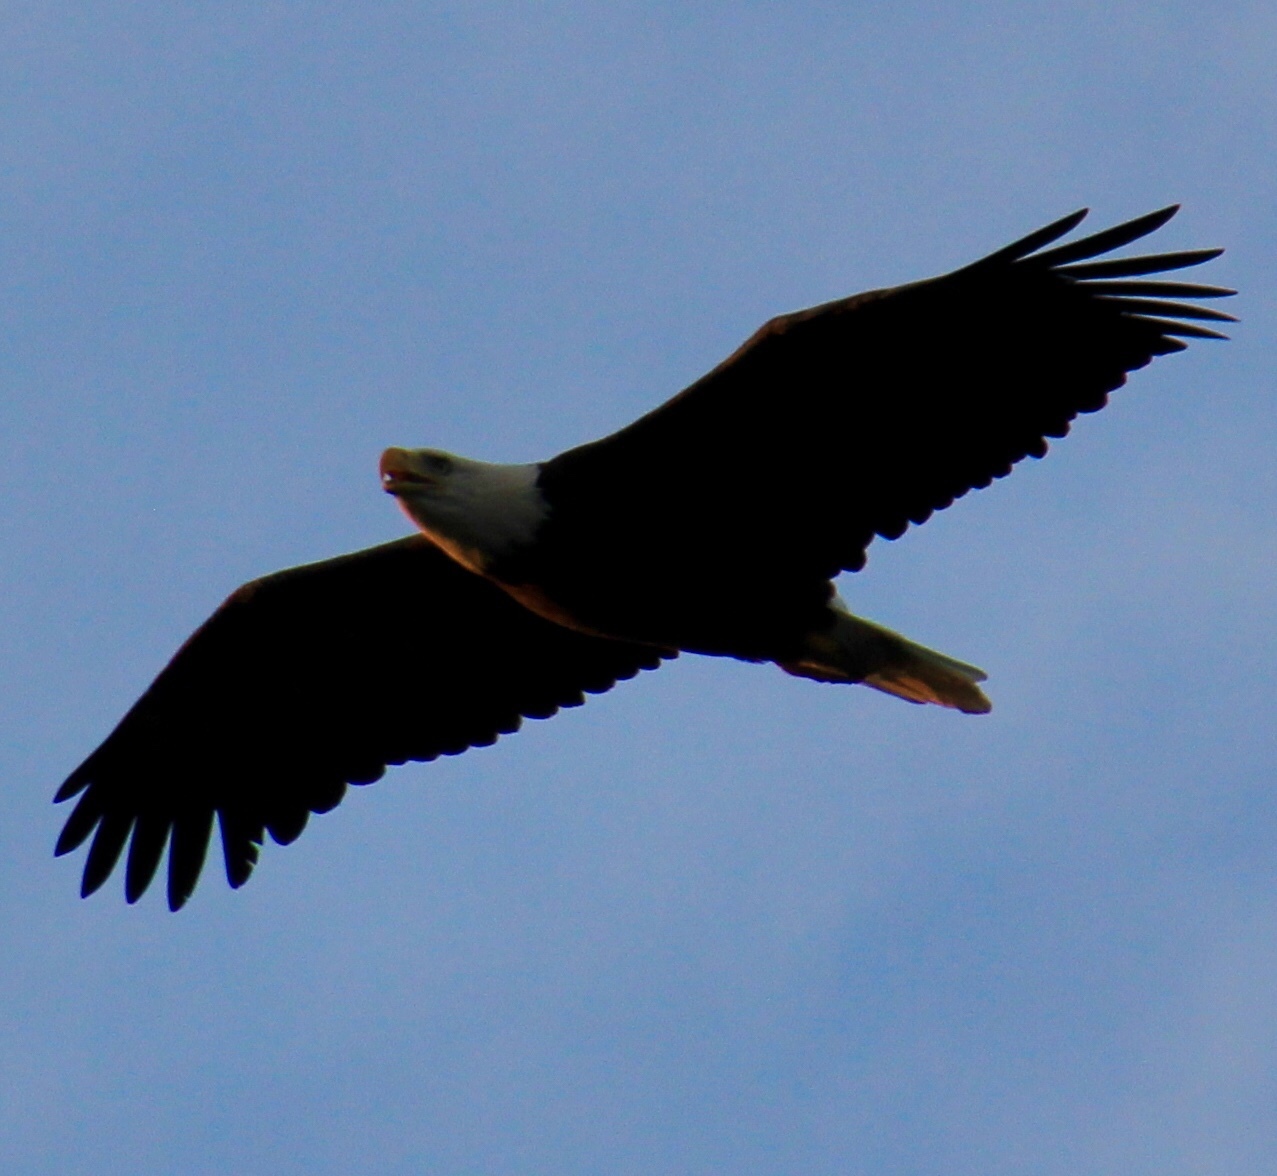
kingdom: Animalia
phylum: Chordata
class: Aves
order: Accipitriformes
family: Accipitridae
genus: Haliaeetus
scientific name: Haliaeetus leucocephalus
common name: Bald eagle
